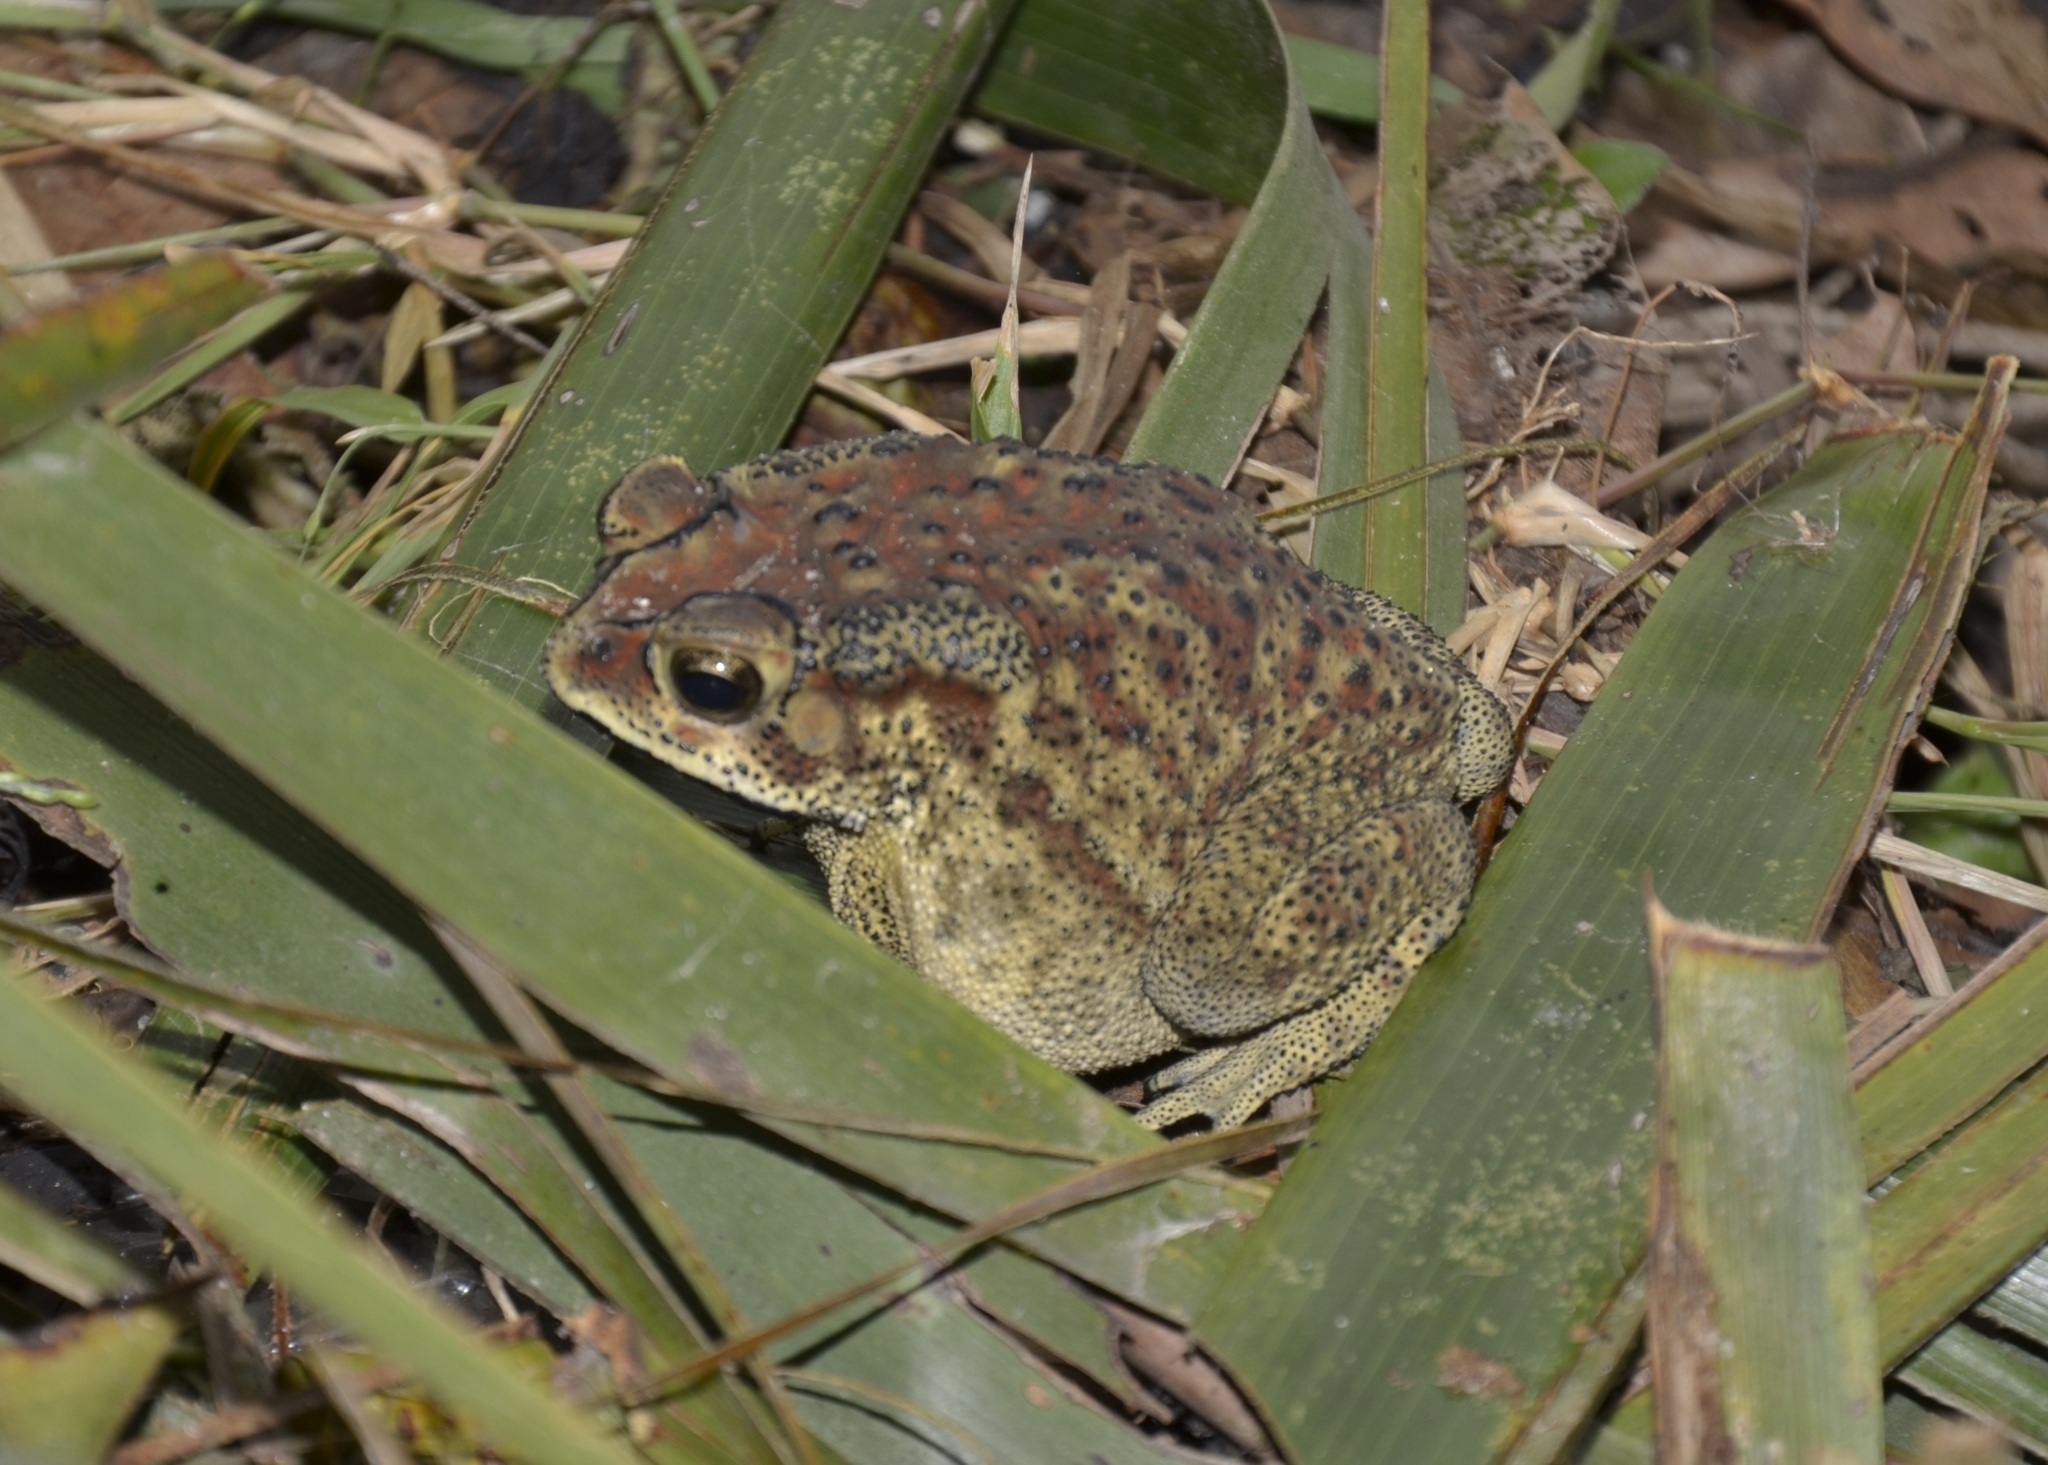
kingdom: Animalia
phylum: Chordata
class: Amphibia
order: Anura
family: Bufonidae
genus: Duttaphrynus
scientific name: Duttaphrynus melanostictus
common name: Common sunda toad
